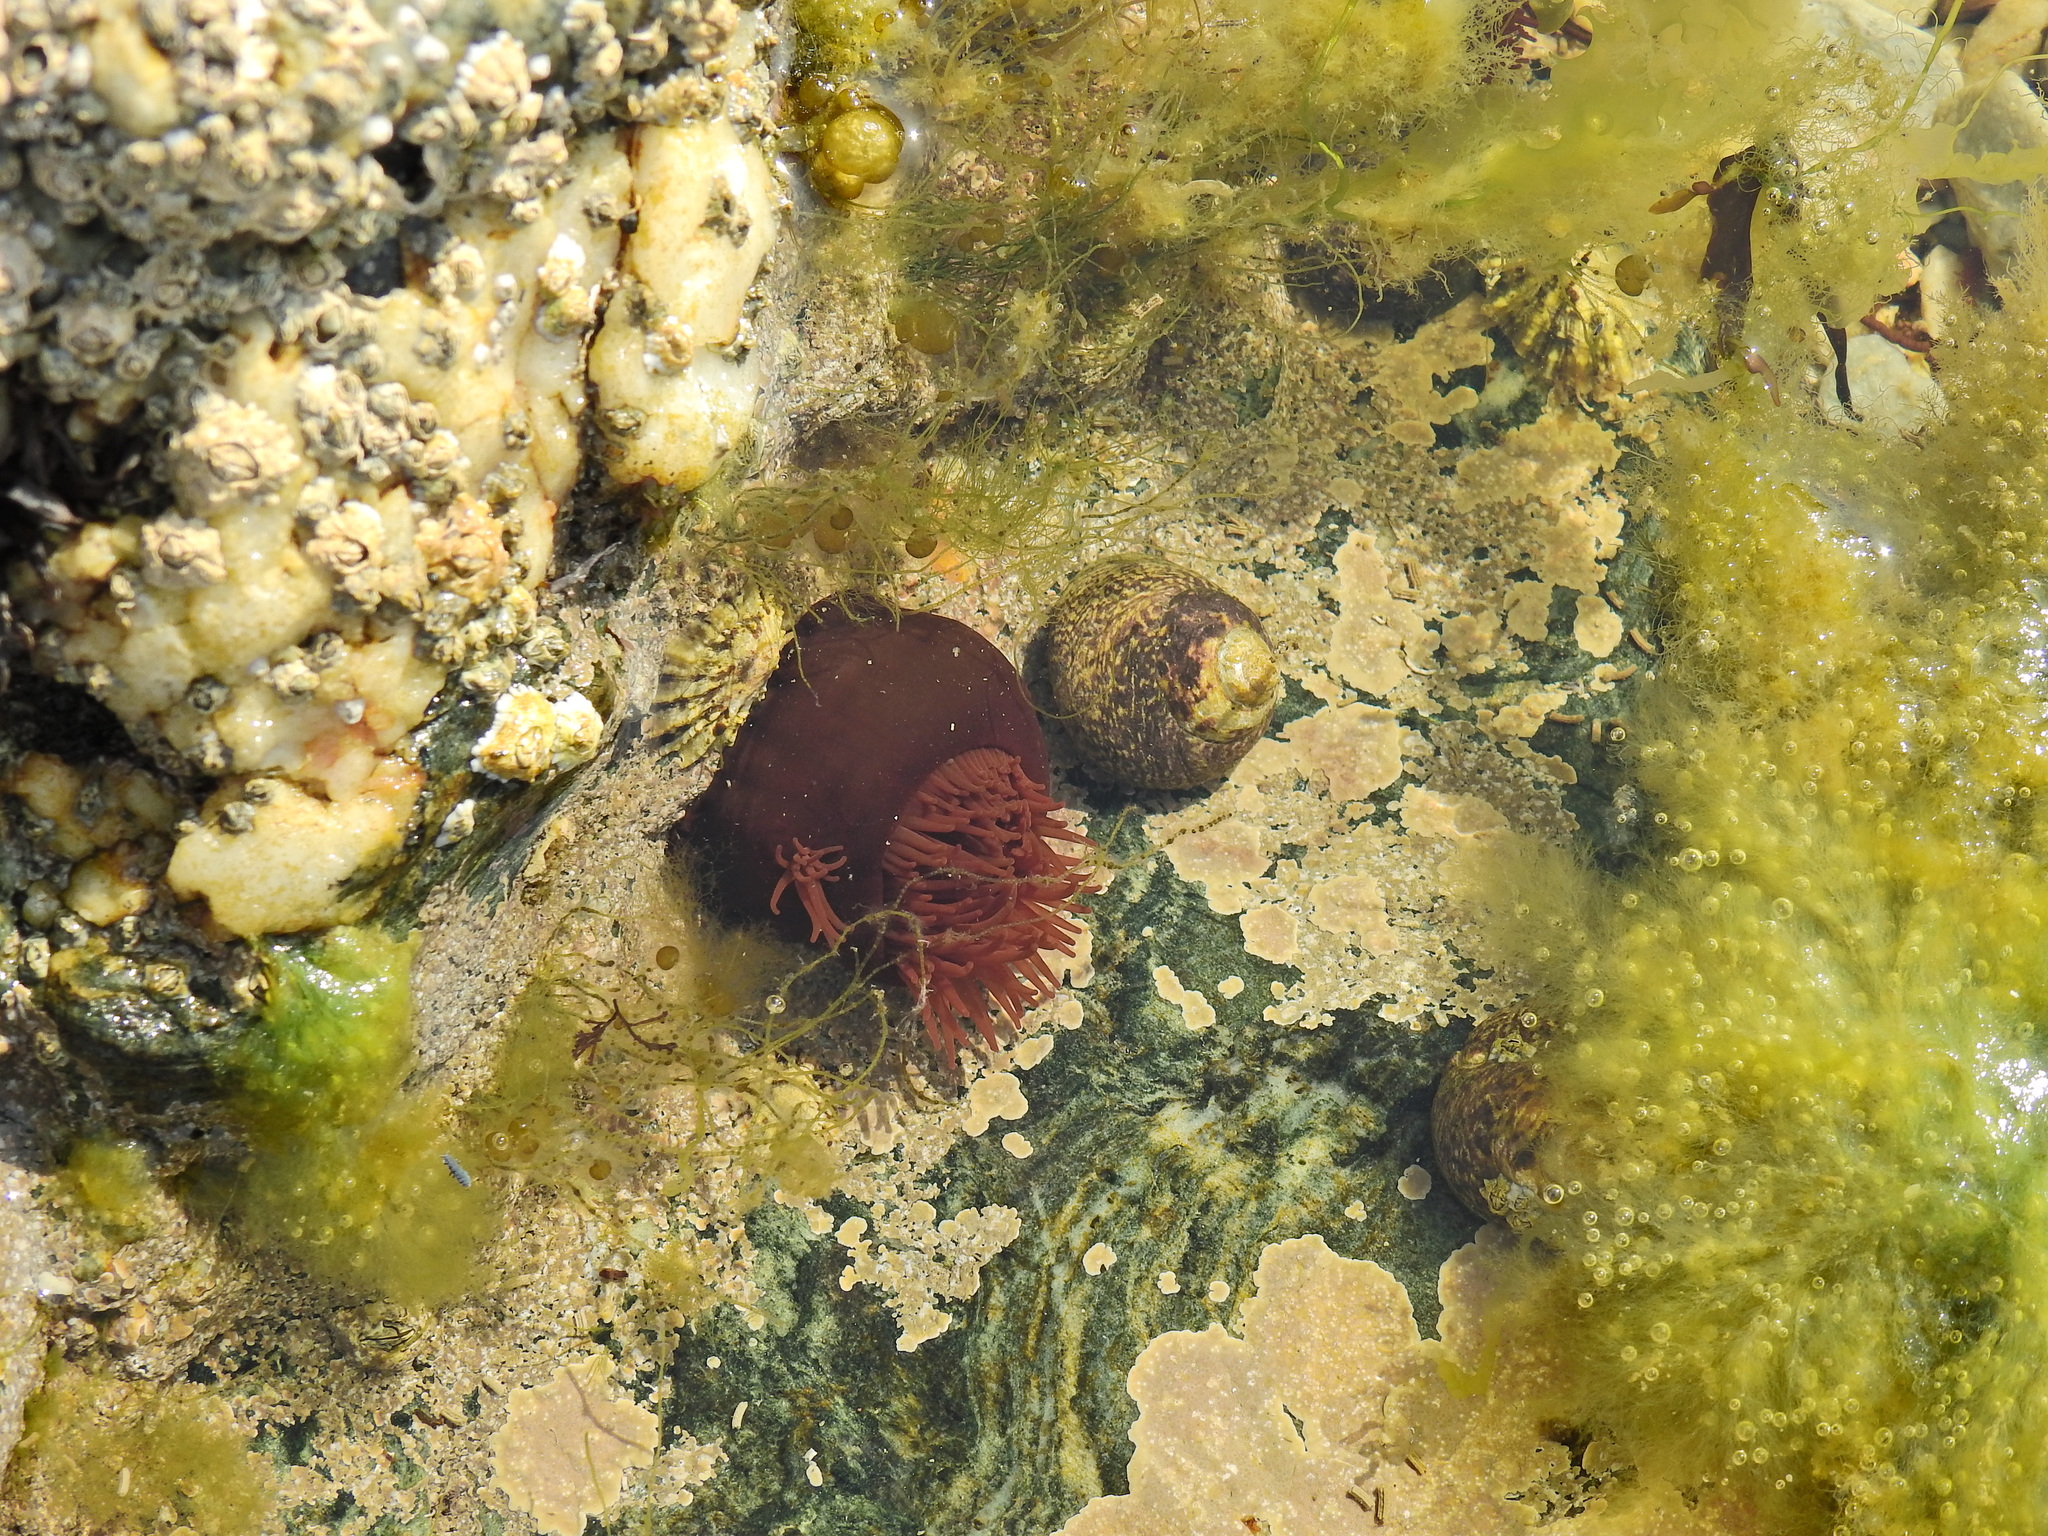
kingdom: Animalia
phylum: Cnidaria
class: Anthozoa
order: Actiniaria
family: Actiniidae
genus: Actinia
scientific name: Actinia equina
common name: Beadlet anemone
